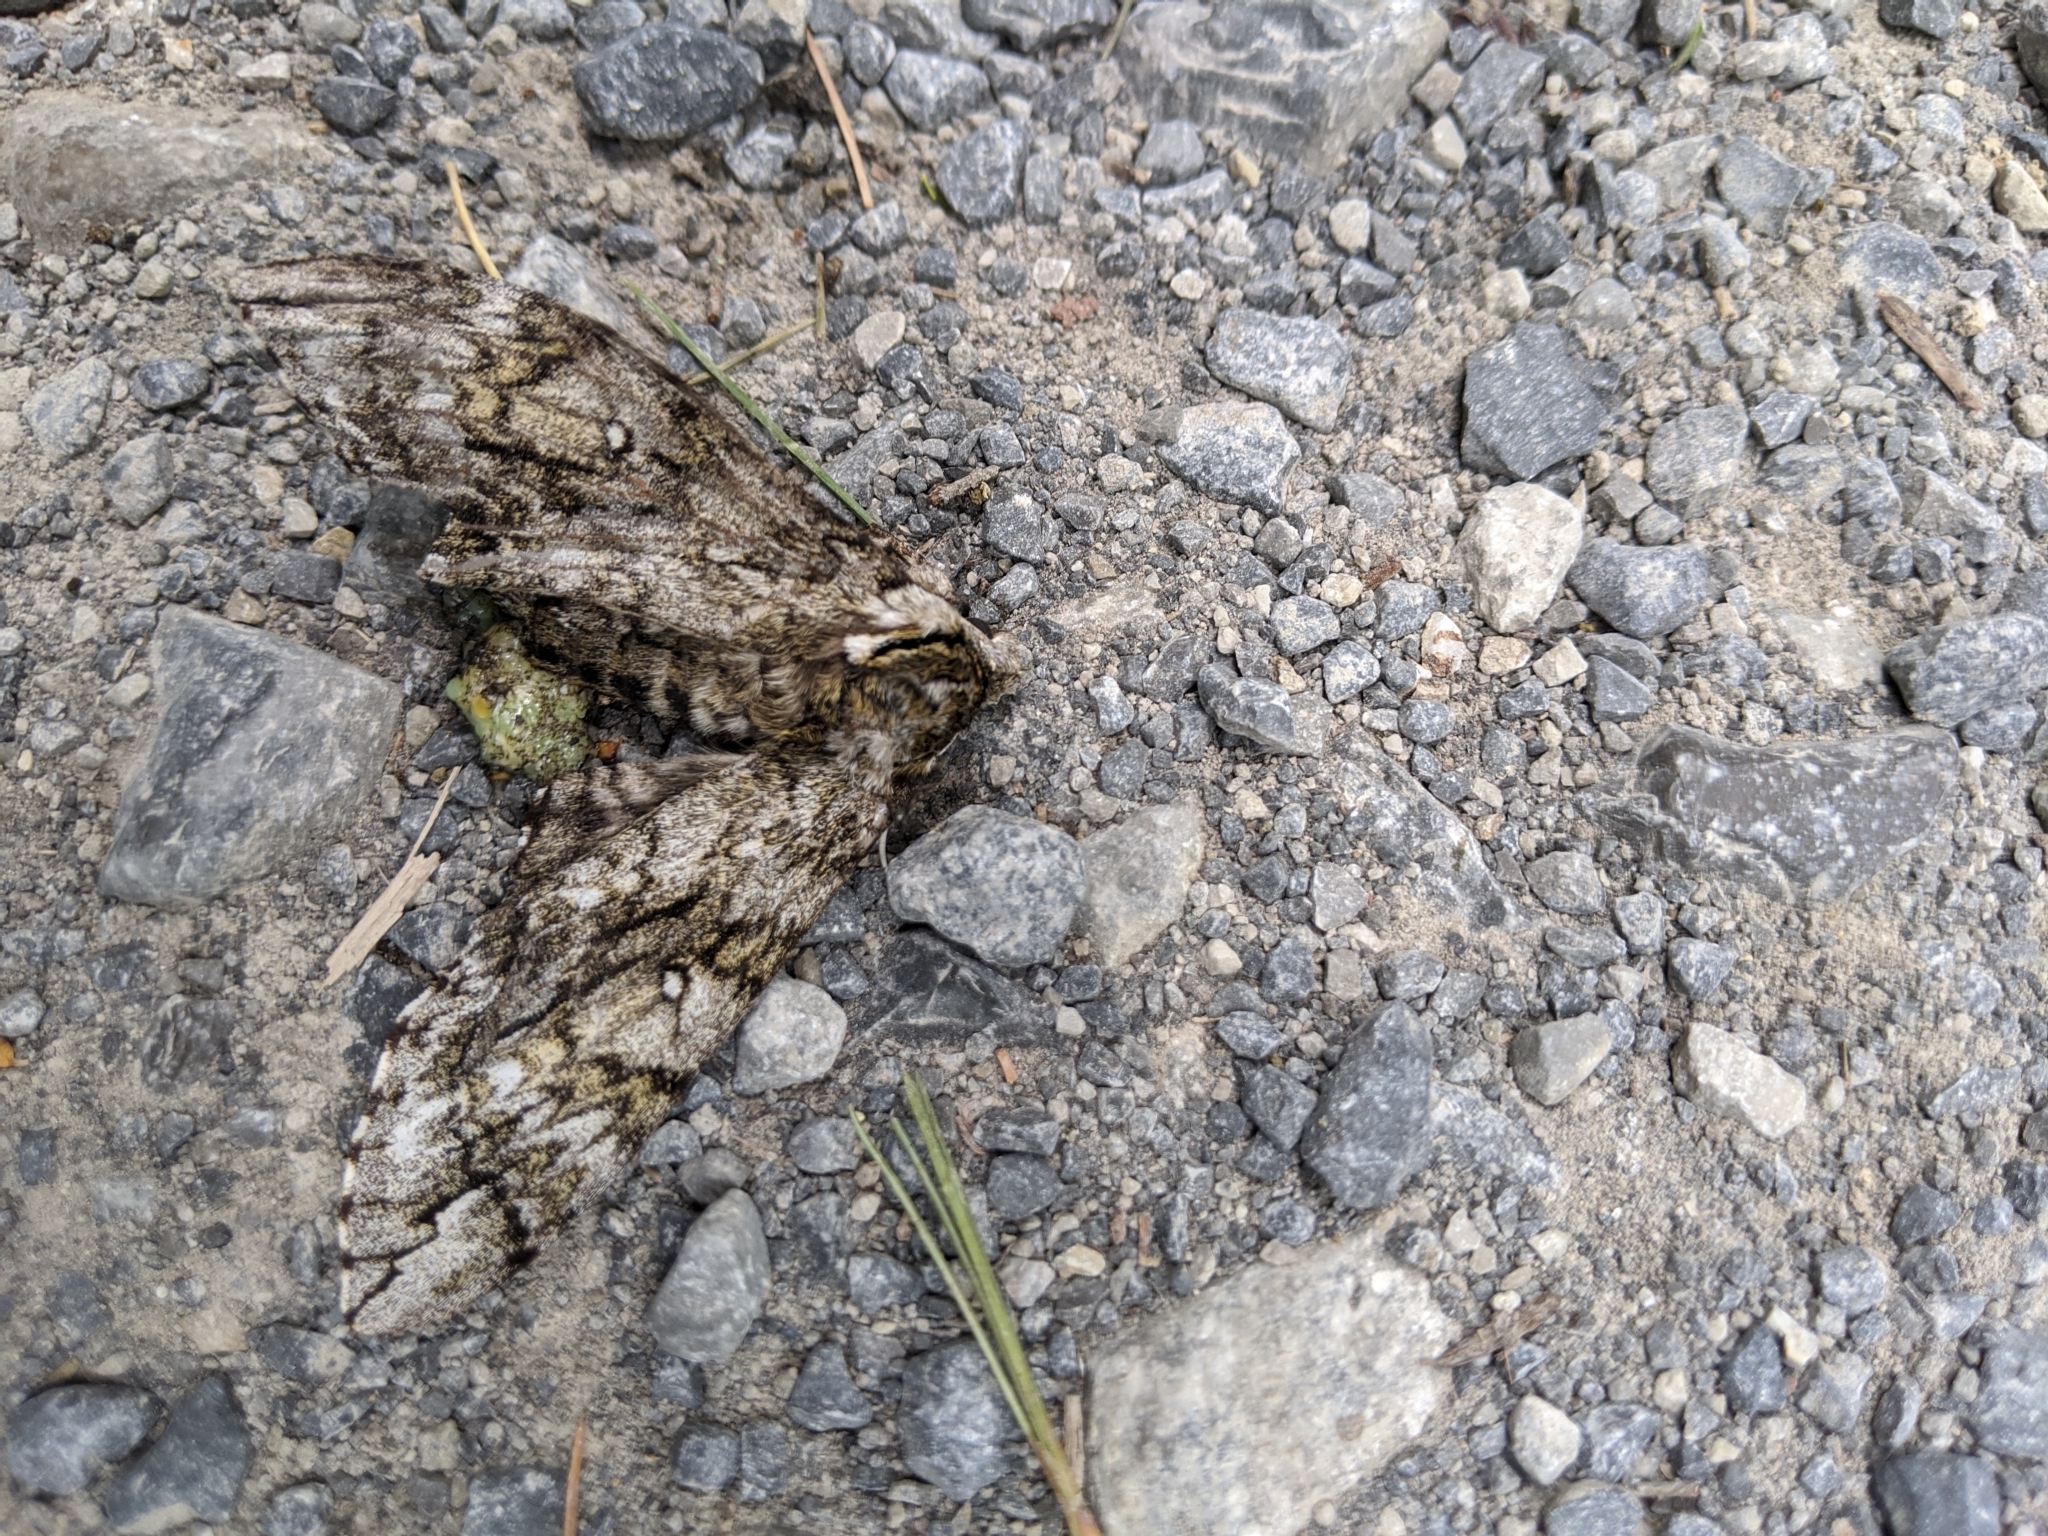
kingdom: Animalia
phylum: Arthropoda
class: Insecta
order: Lepidoptera
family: Sphingidae
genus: Ceratomia
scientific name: Ceratomia undulosa
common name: Waved sphinx
